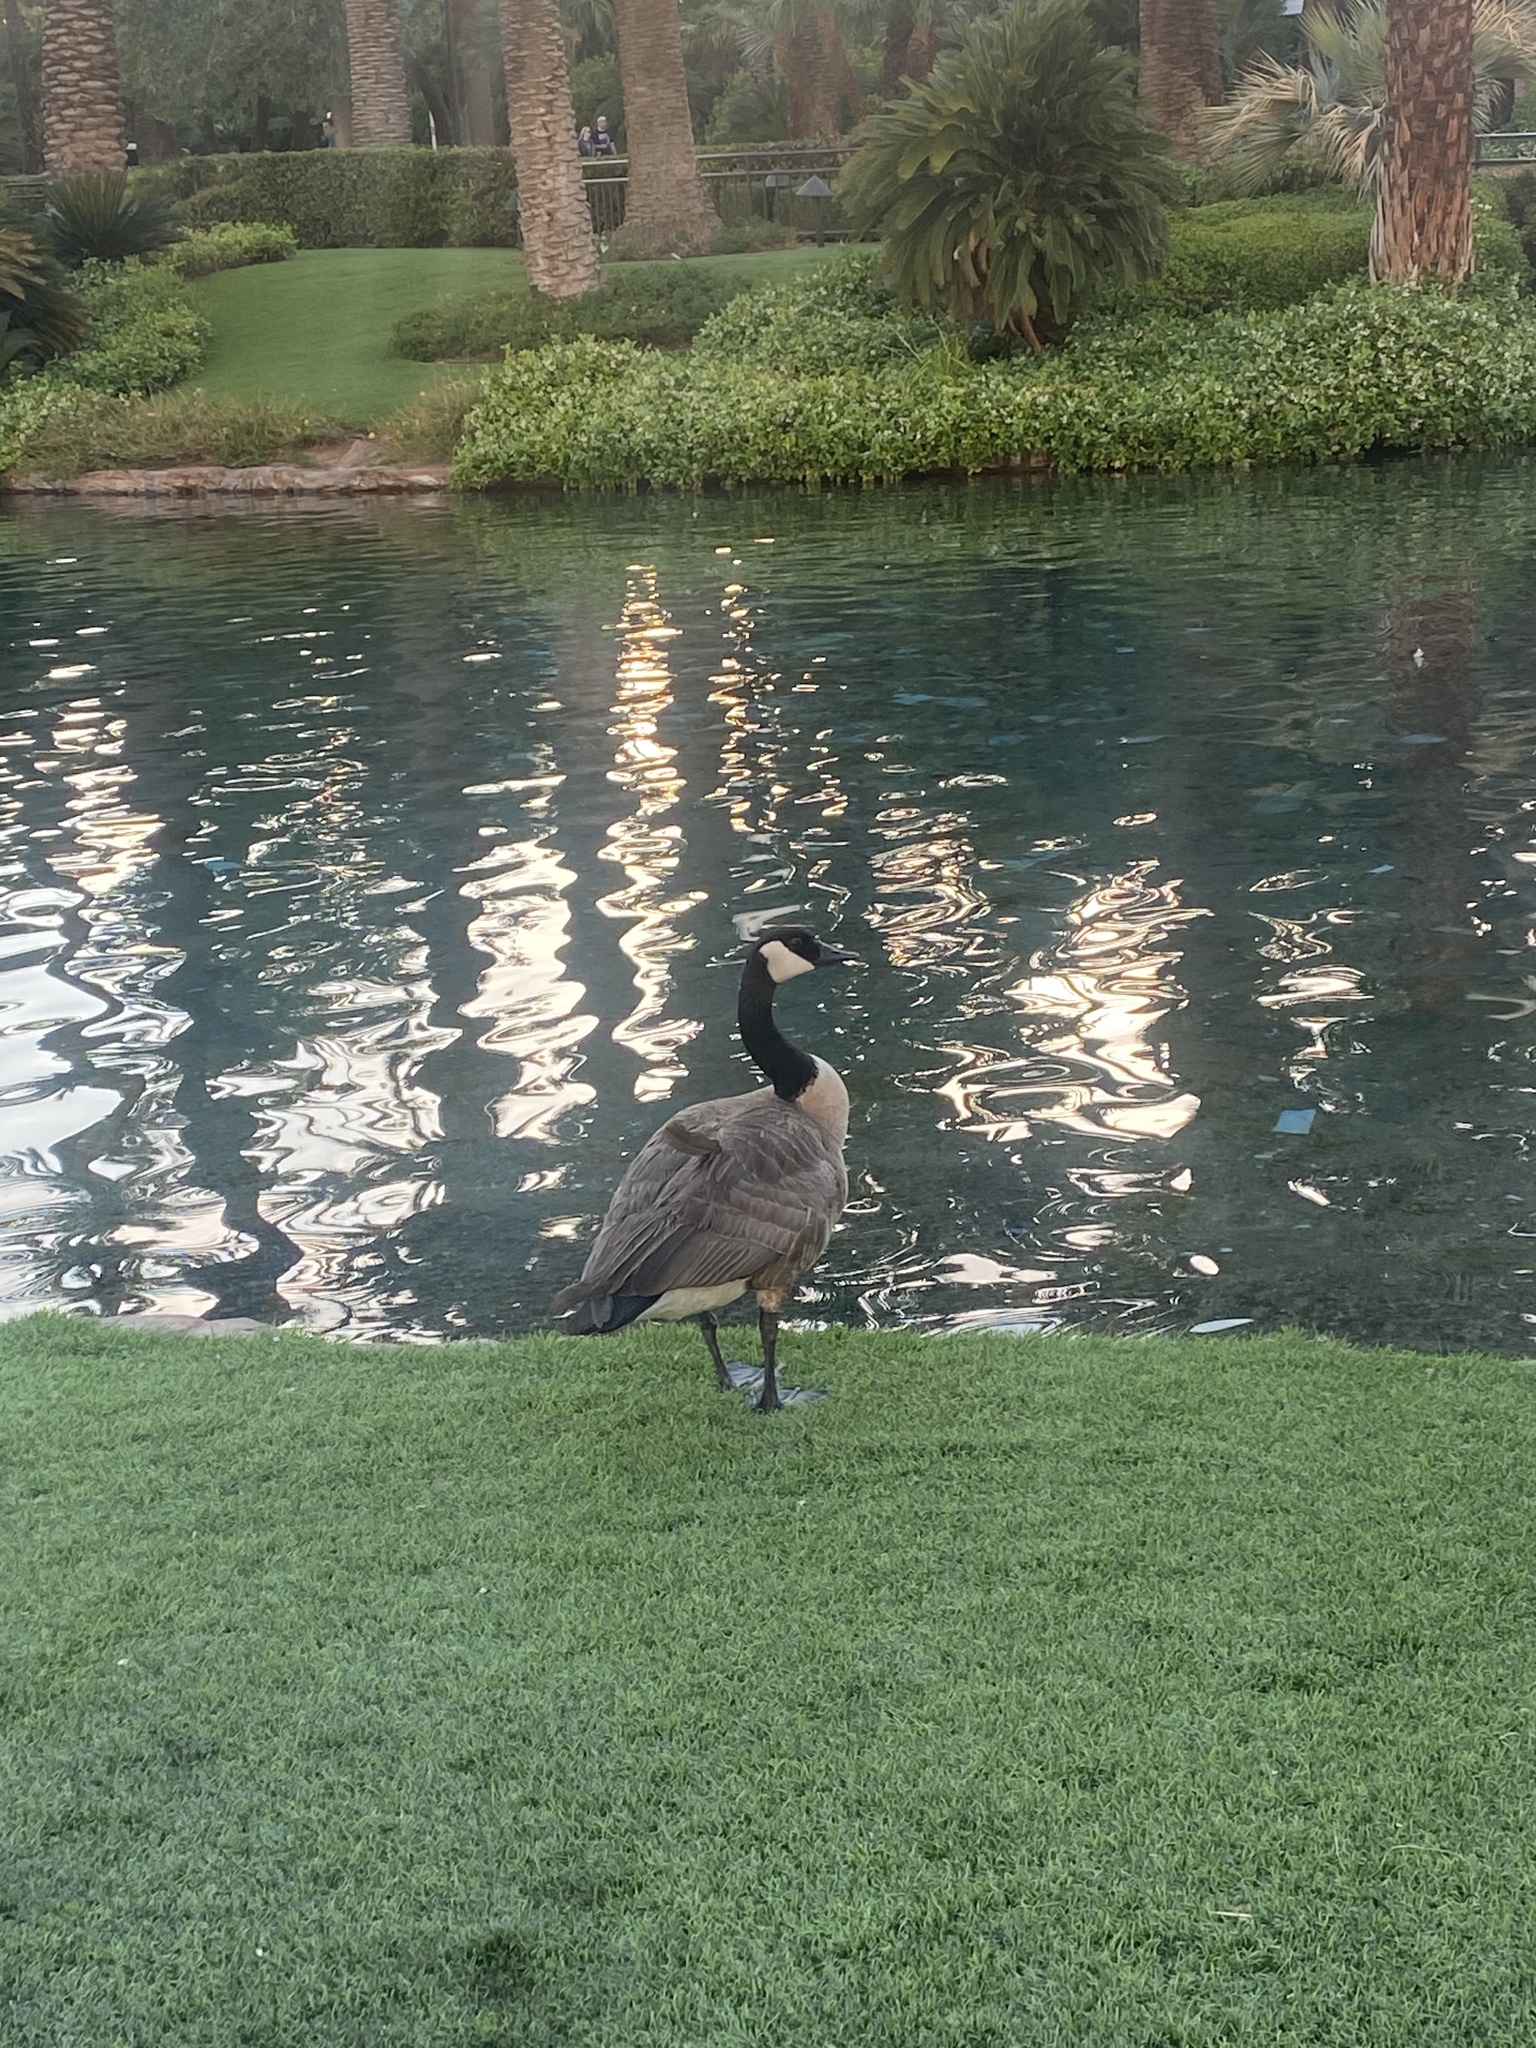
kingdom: Animalia
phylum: Chordata
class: Aves
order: Anseriformes
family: Anatidae
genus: Branta
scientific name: Branta canadensis
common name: Canada goose
